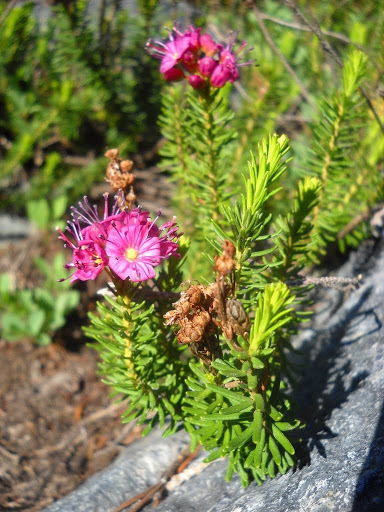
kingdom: Plantae
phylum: Tracheophyta
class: Magnoliopsida
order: Ericales
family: Ericaceae
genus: Phyllodoce
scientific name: Phyllodoce breweri
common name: Brewer's mountain-heather
